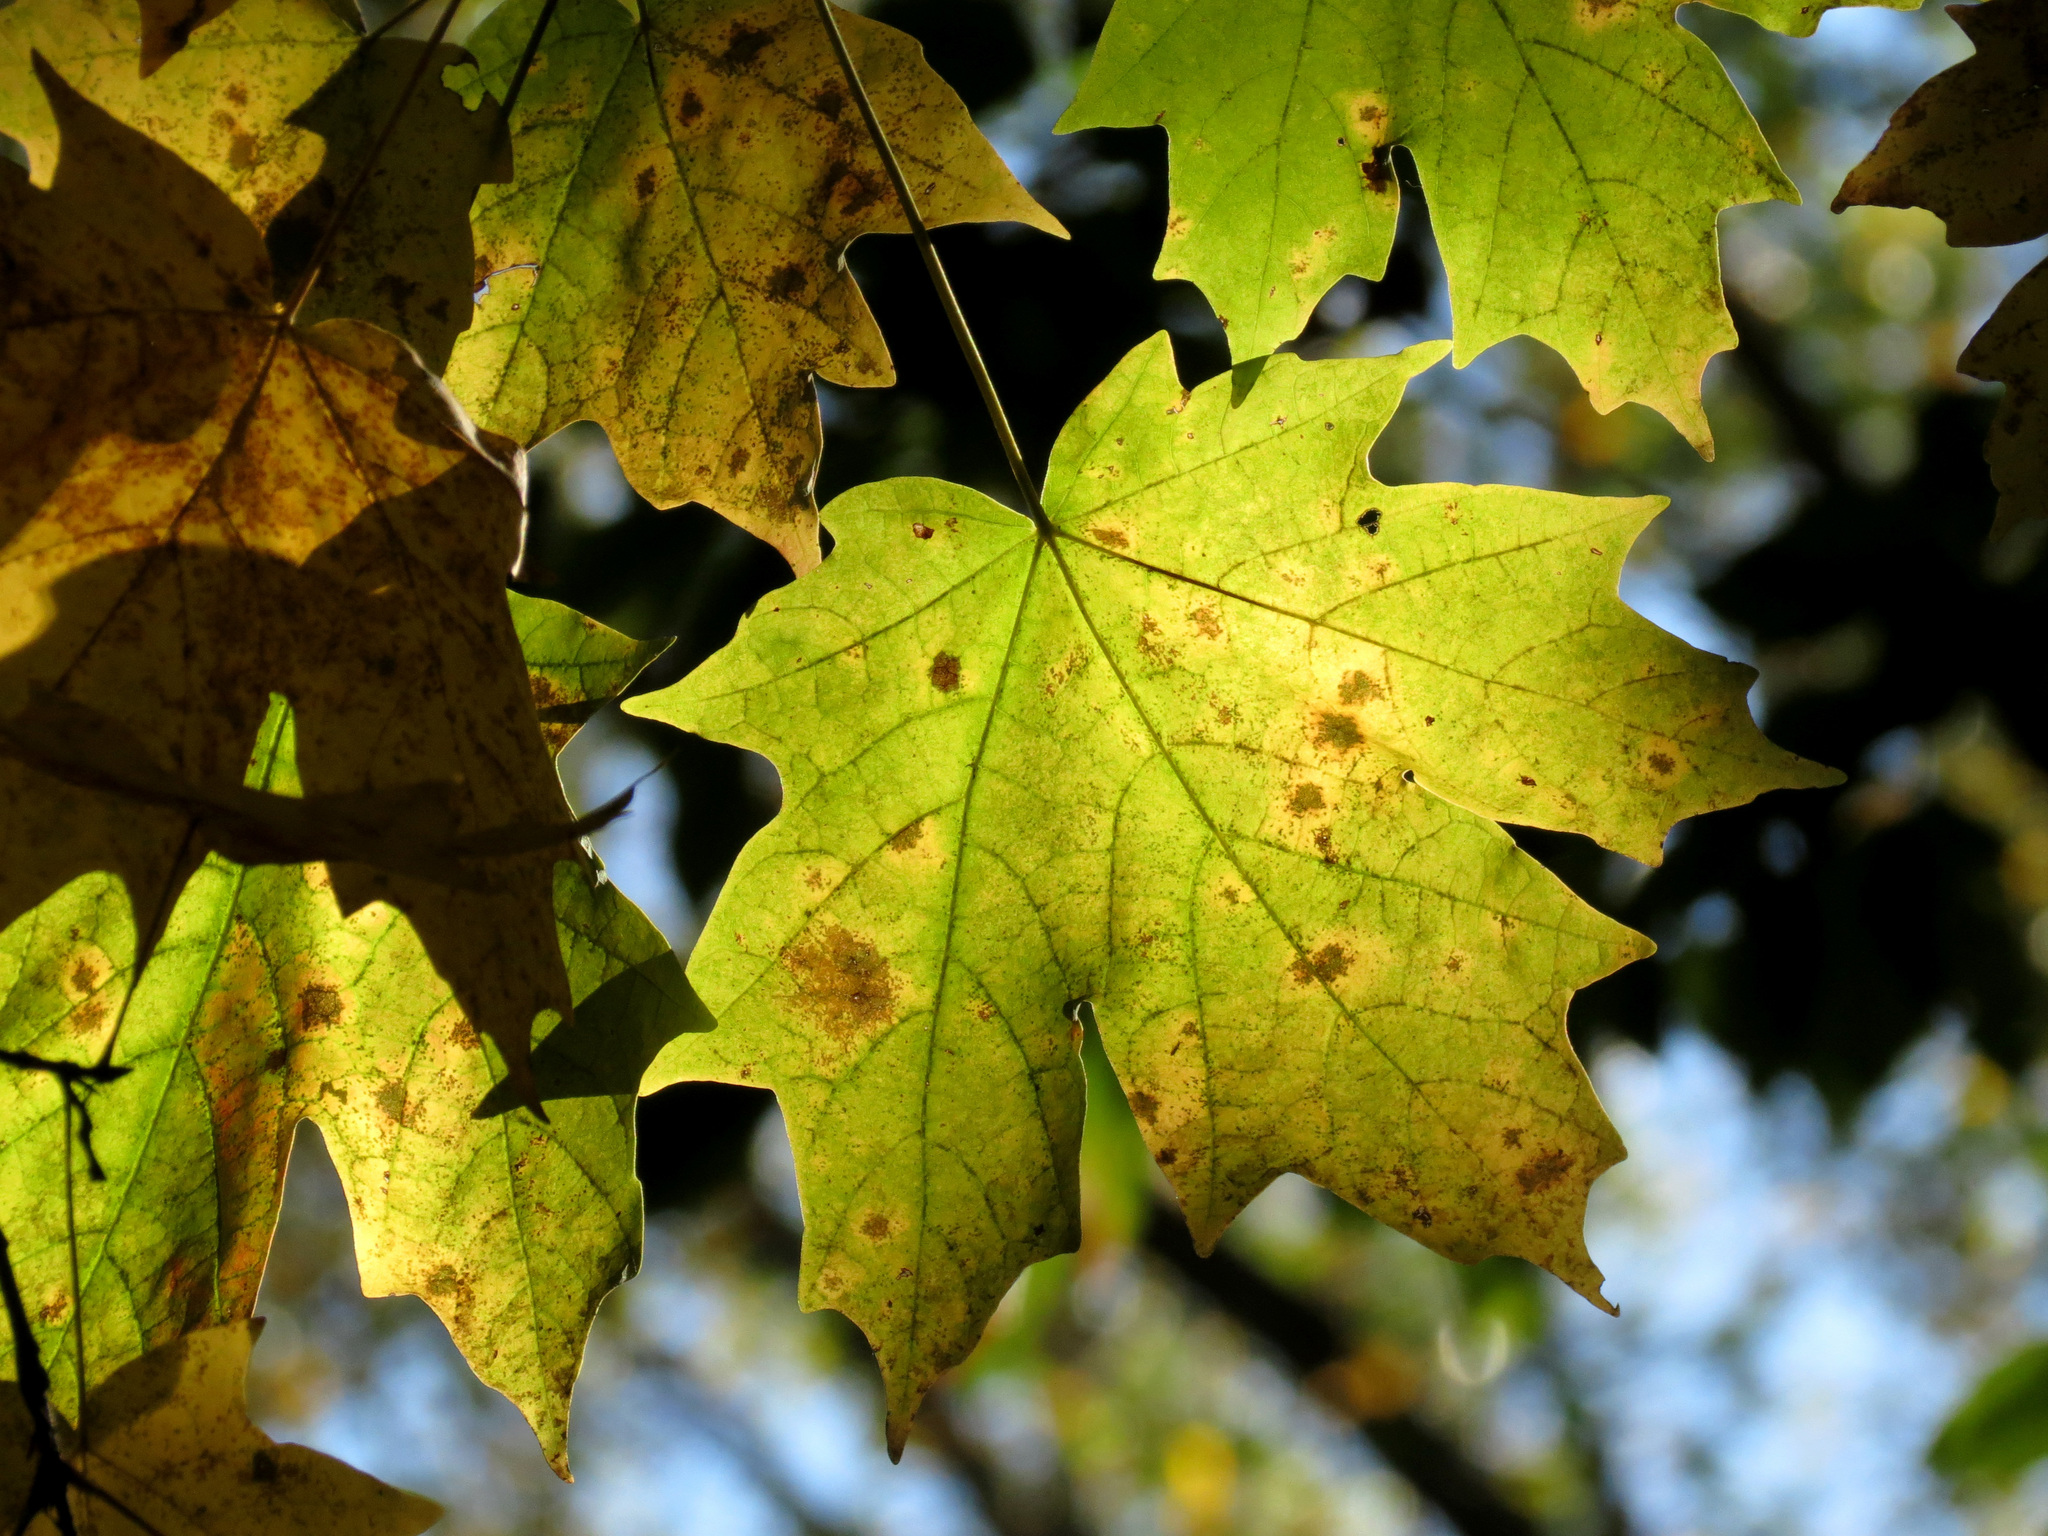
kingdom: Plantae
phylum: Tracheophyta
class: Magnoliopsida
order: Sapindales
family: Sapindaceae
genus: Acer
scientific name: Acer saccharum
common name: Sugar maple
